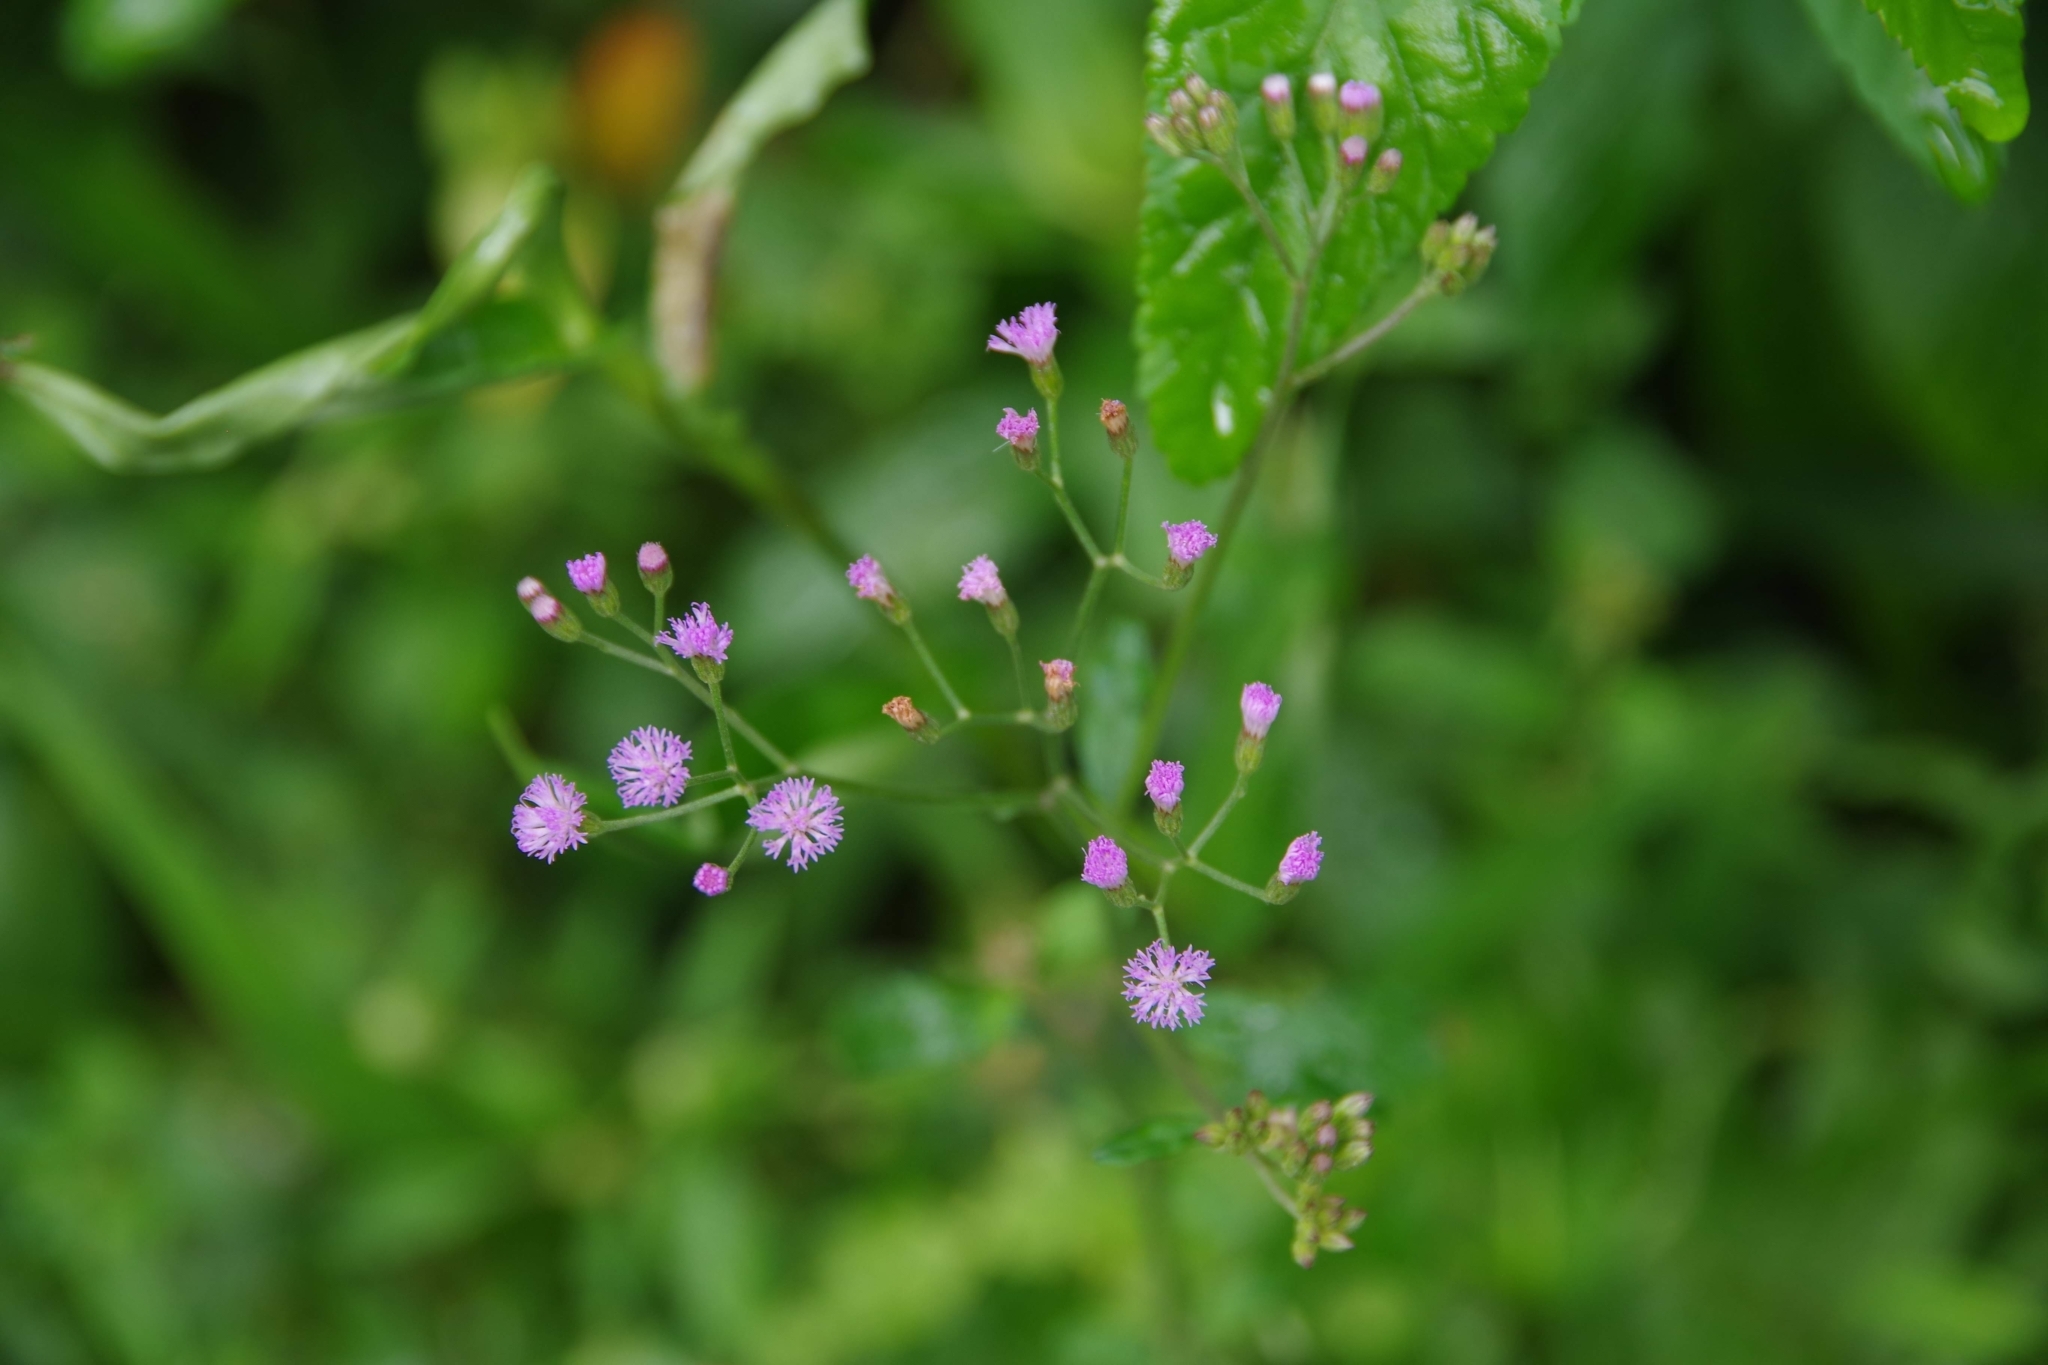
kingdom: Plantae
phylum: Tracheophyta
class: Magnoliopsida
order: Asterales
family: Asteraceae
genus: Cyanthillium
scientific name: Cyanthillium cinereum
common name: Little ironweed
